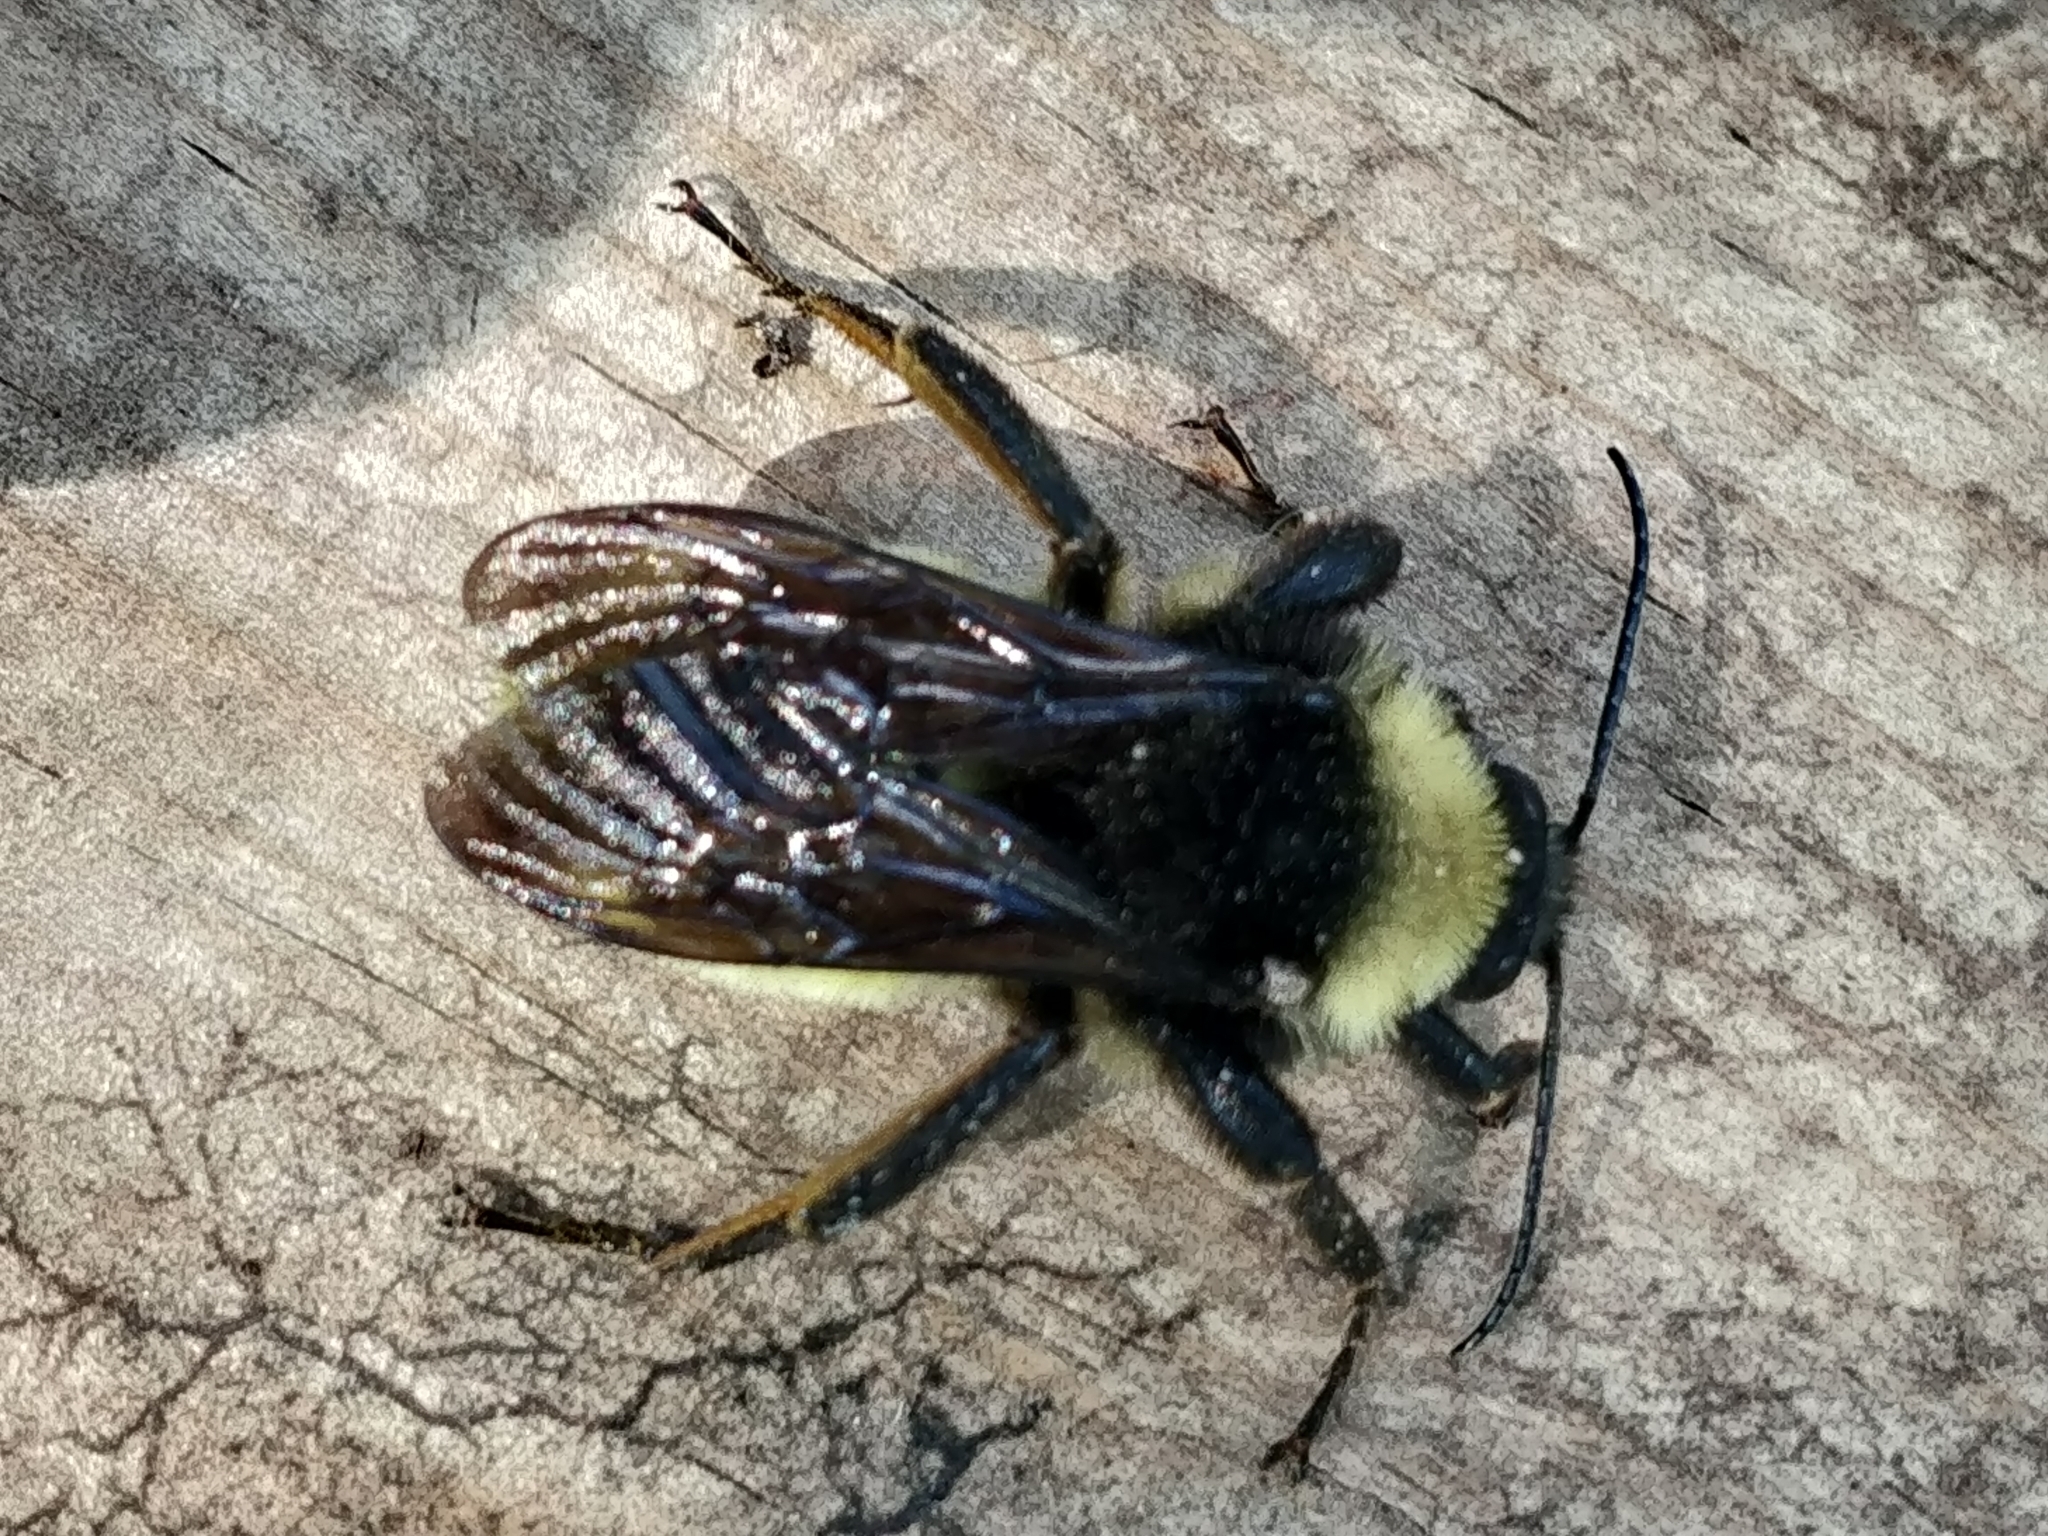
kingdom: Animalia
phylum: Arthropoda
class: Insecta
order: Hymenoptera
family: Apidae
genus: Bombus
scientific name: Bombus pensylvanicus
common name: Bumble bee
